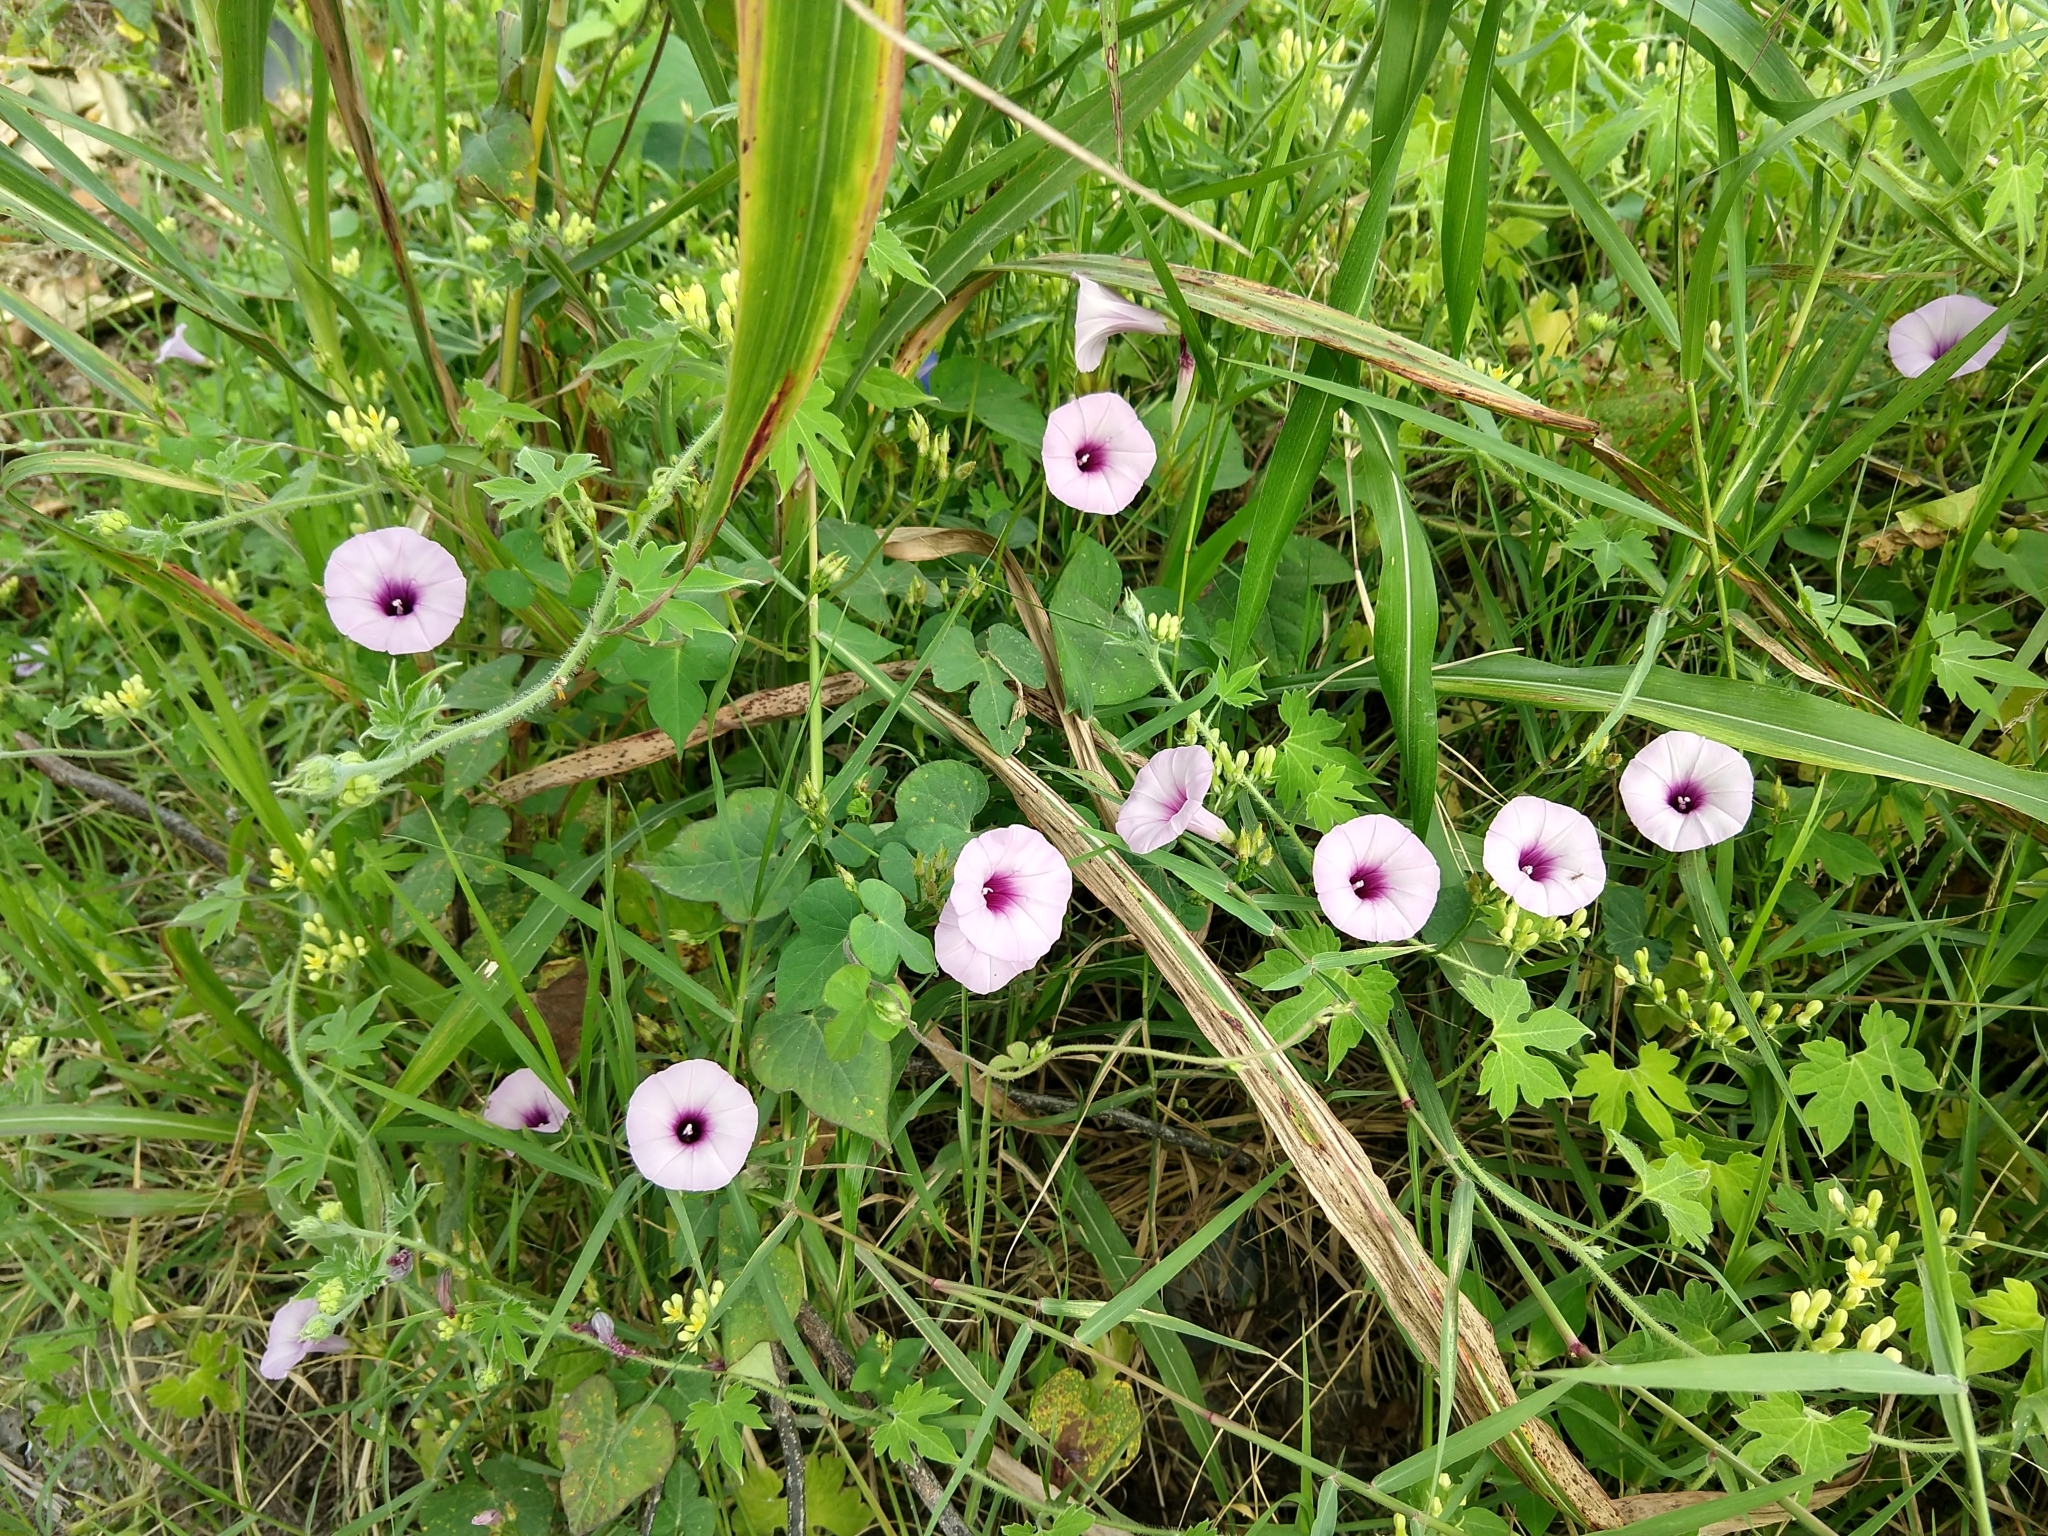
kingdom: Plantae
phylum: Tracheophyta
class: Magnoliopsida
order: Solanales
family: Convolvulaceae
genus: Ipomoea
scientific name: Ipomoea trifida
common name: Cotton morningglory
